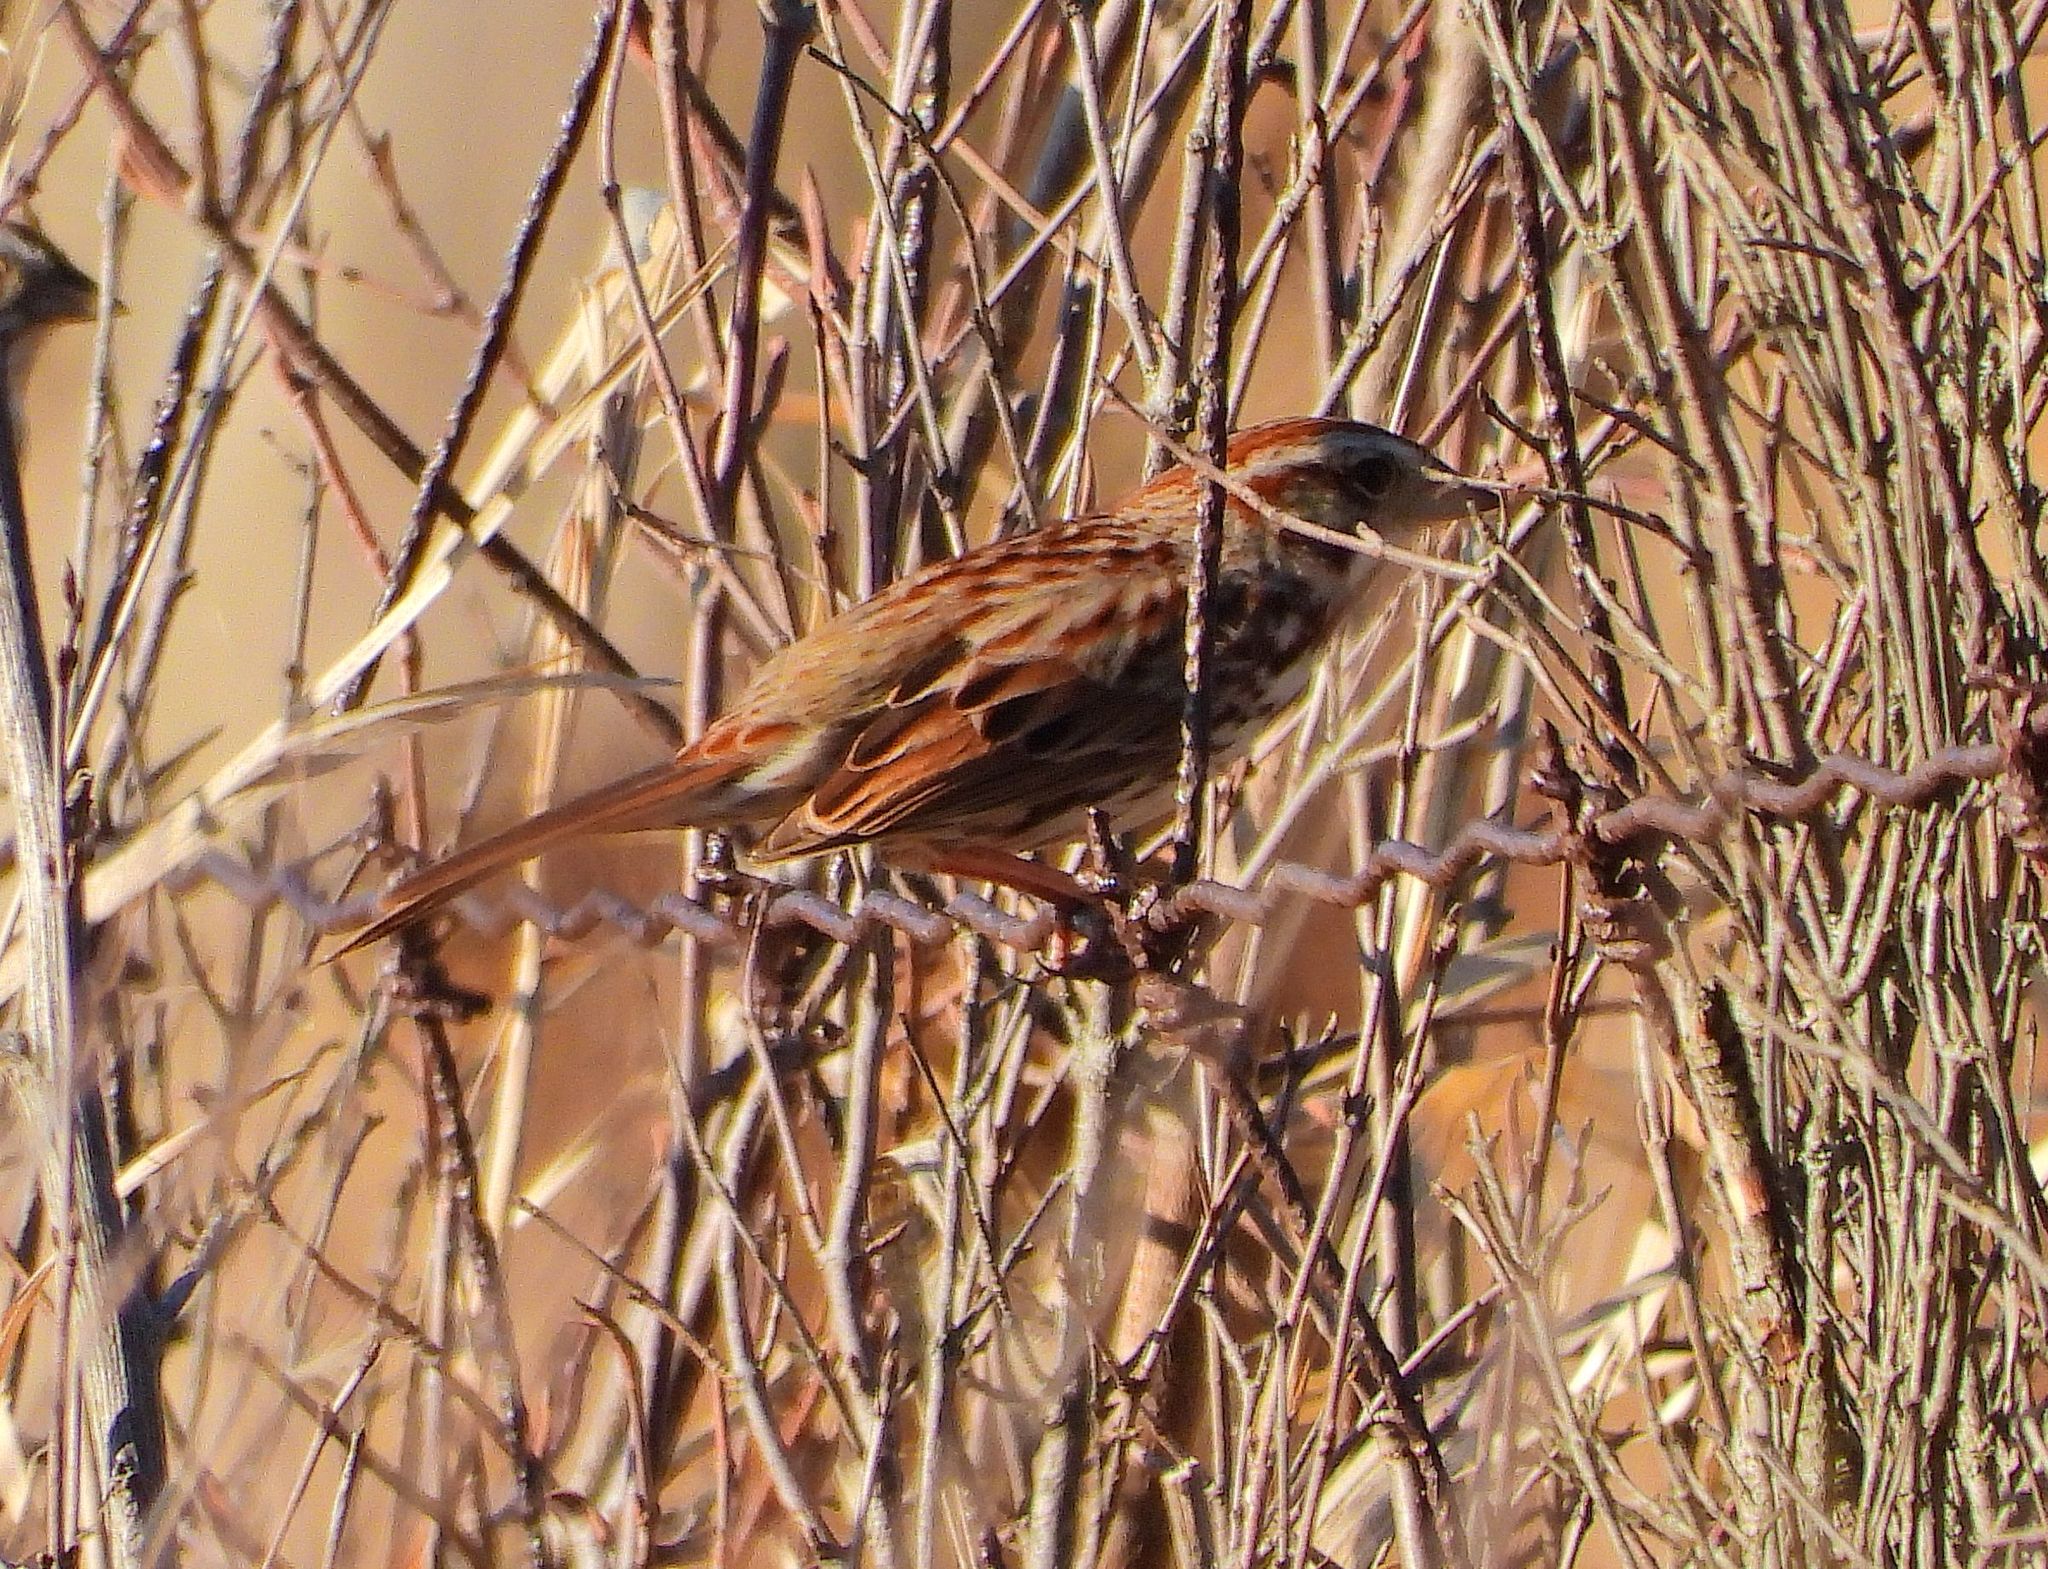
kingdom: Animalia
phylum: Chordata
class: Aves
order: Passeriformes
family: Passerellidae
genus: Melospiza
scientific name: Melospiza melodia
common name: Song sparrow
